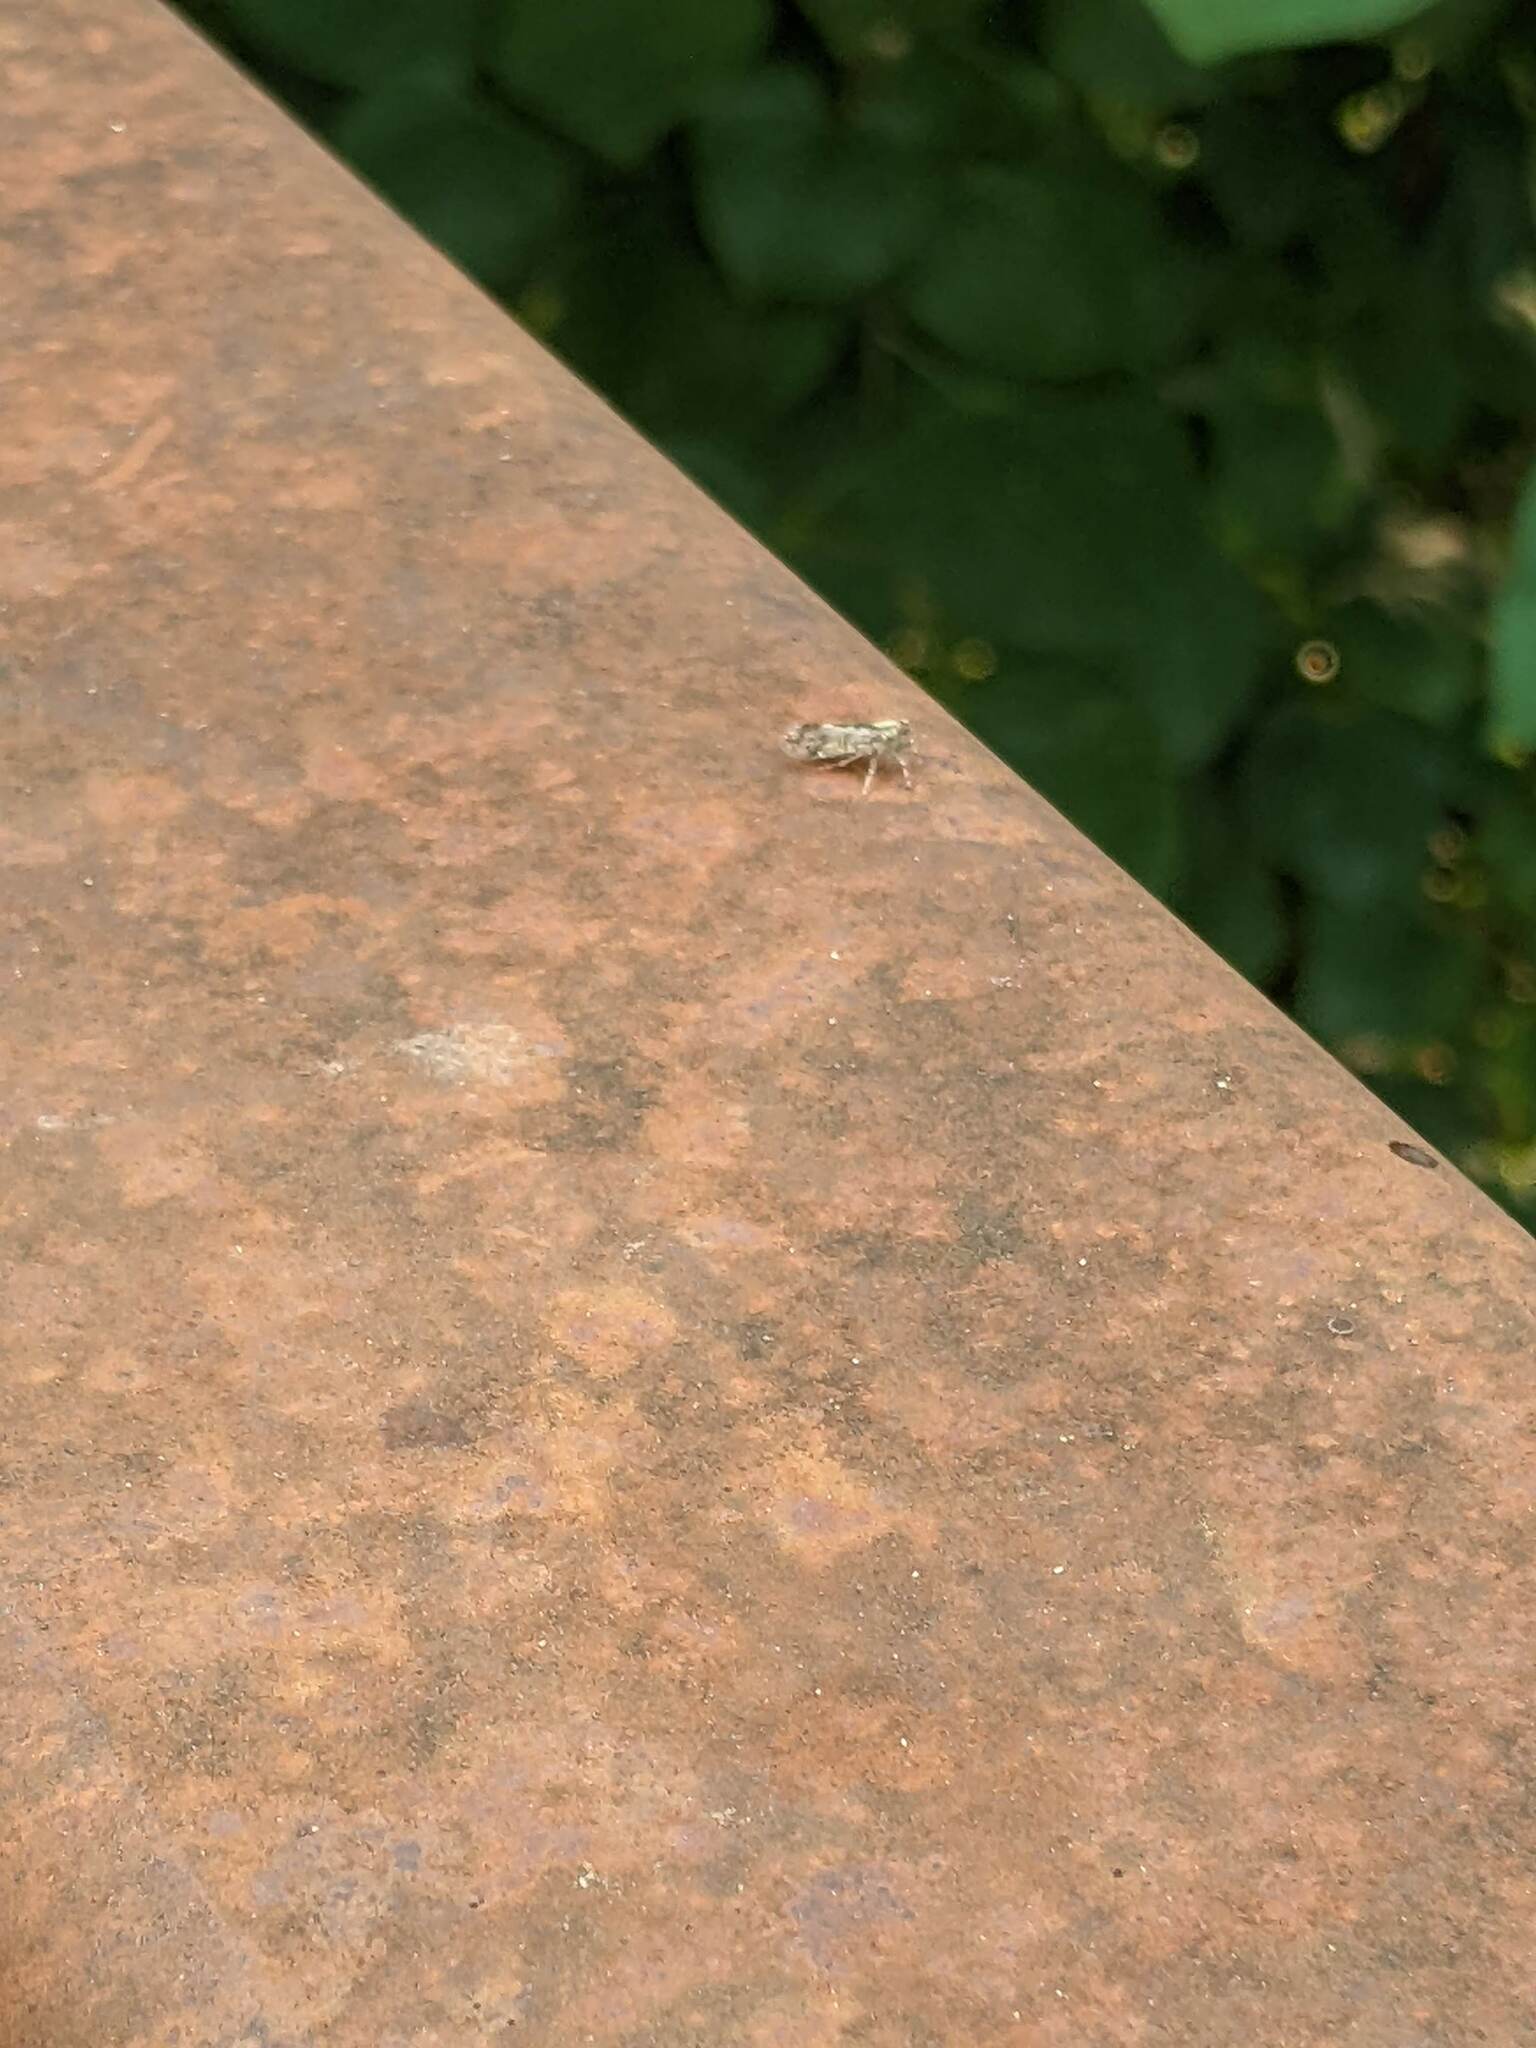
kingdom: Animalia
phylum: Arthropoda
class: Insecta
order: Hemiptera
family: Cixiidae
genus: Melanoliarus
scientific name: Melanoliarus placitus
